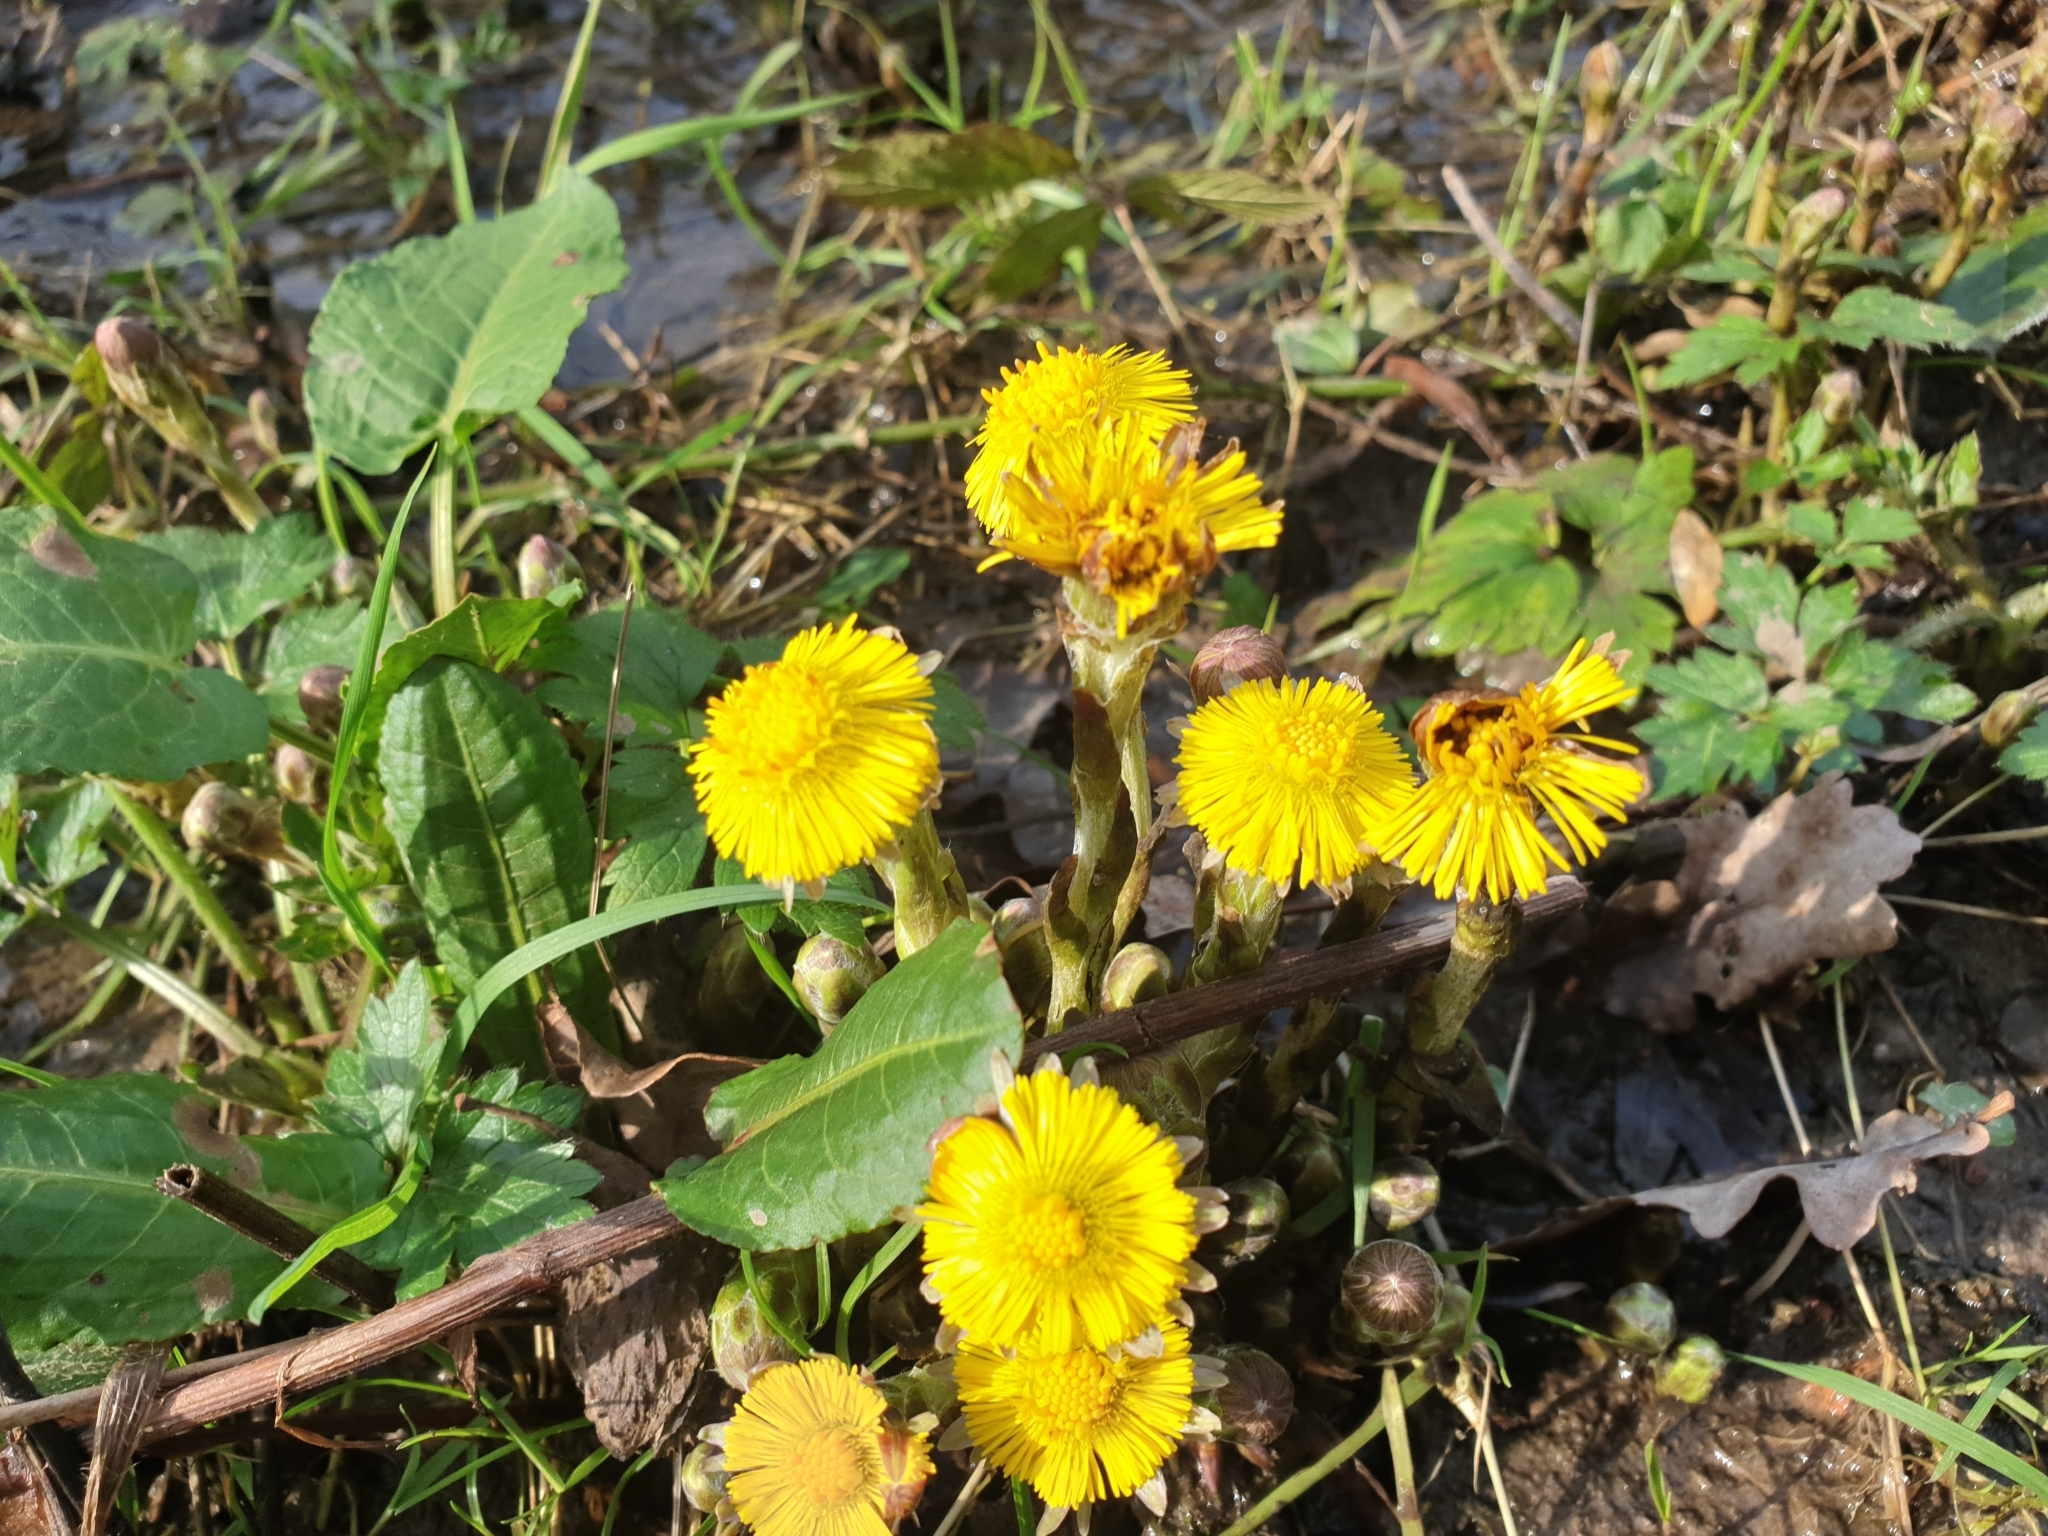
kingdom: Plantae
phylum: Tracheophyta
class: Magnoliopsida
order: Asterales
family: Asteraceae
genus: Tussilago
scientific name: Tussilago farfara
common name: Coltsfoot
